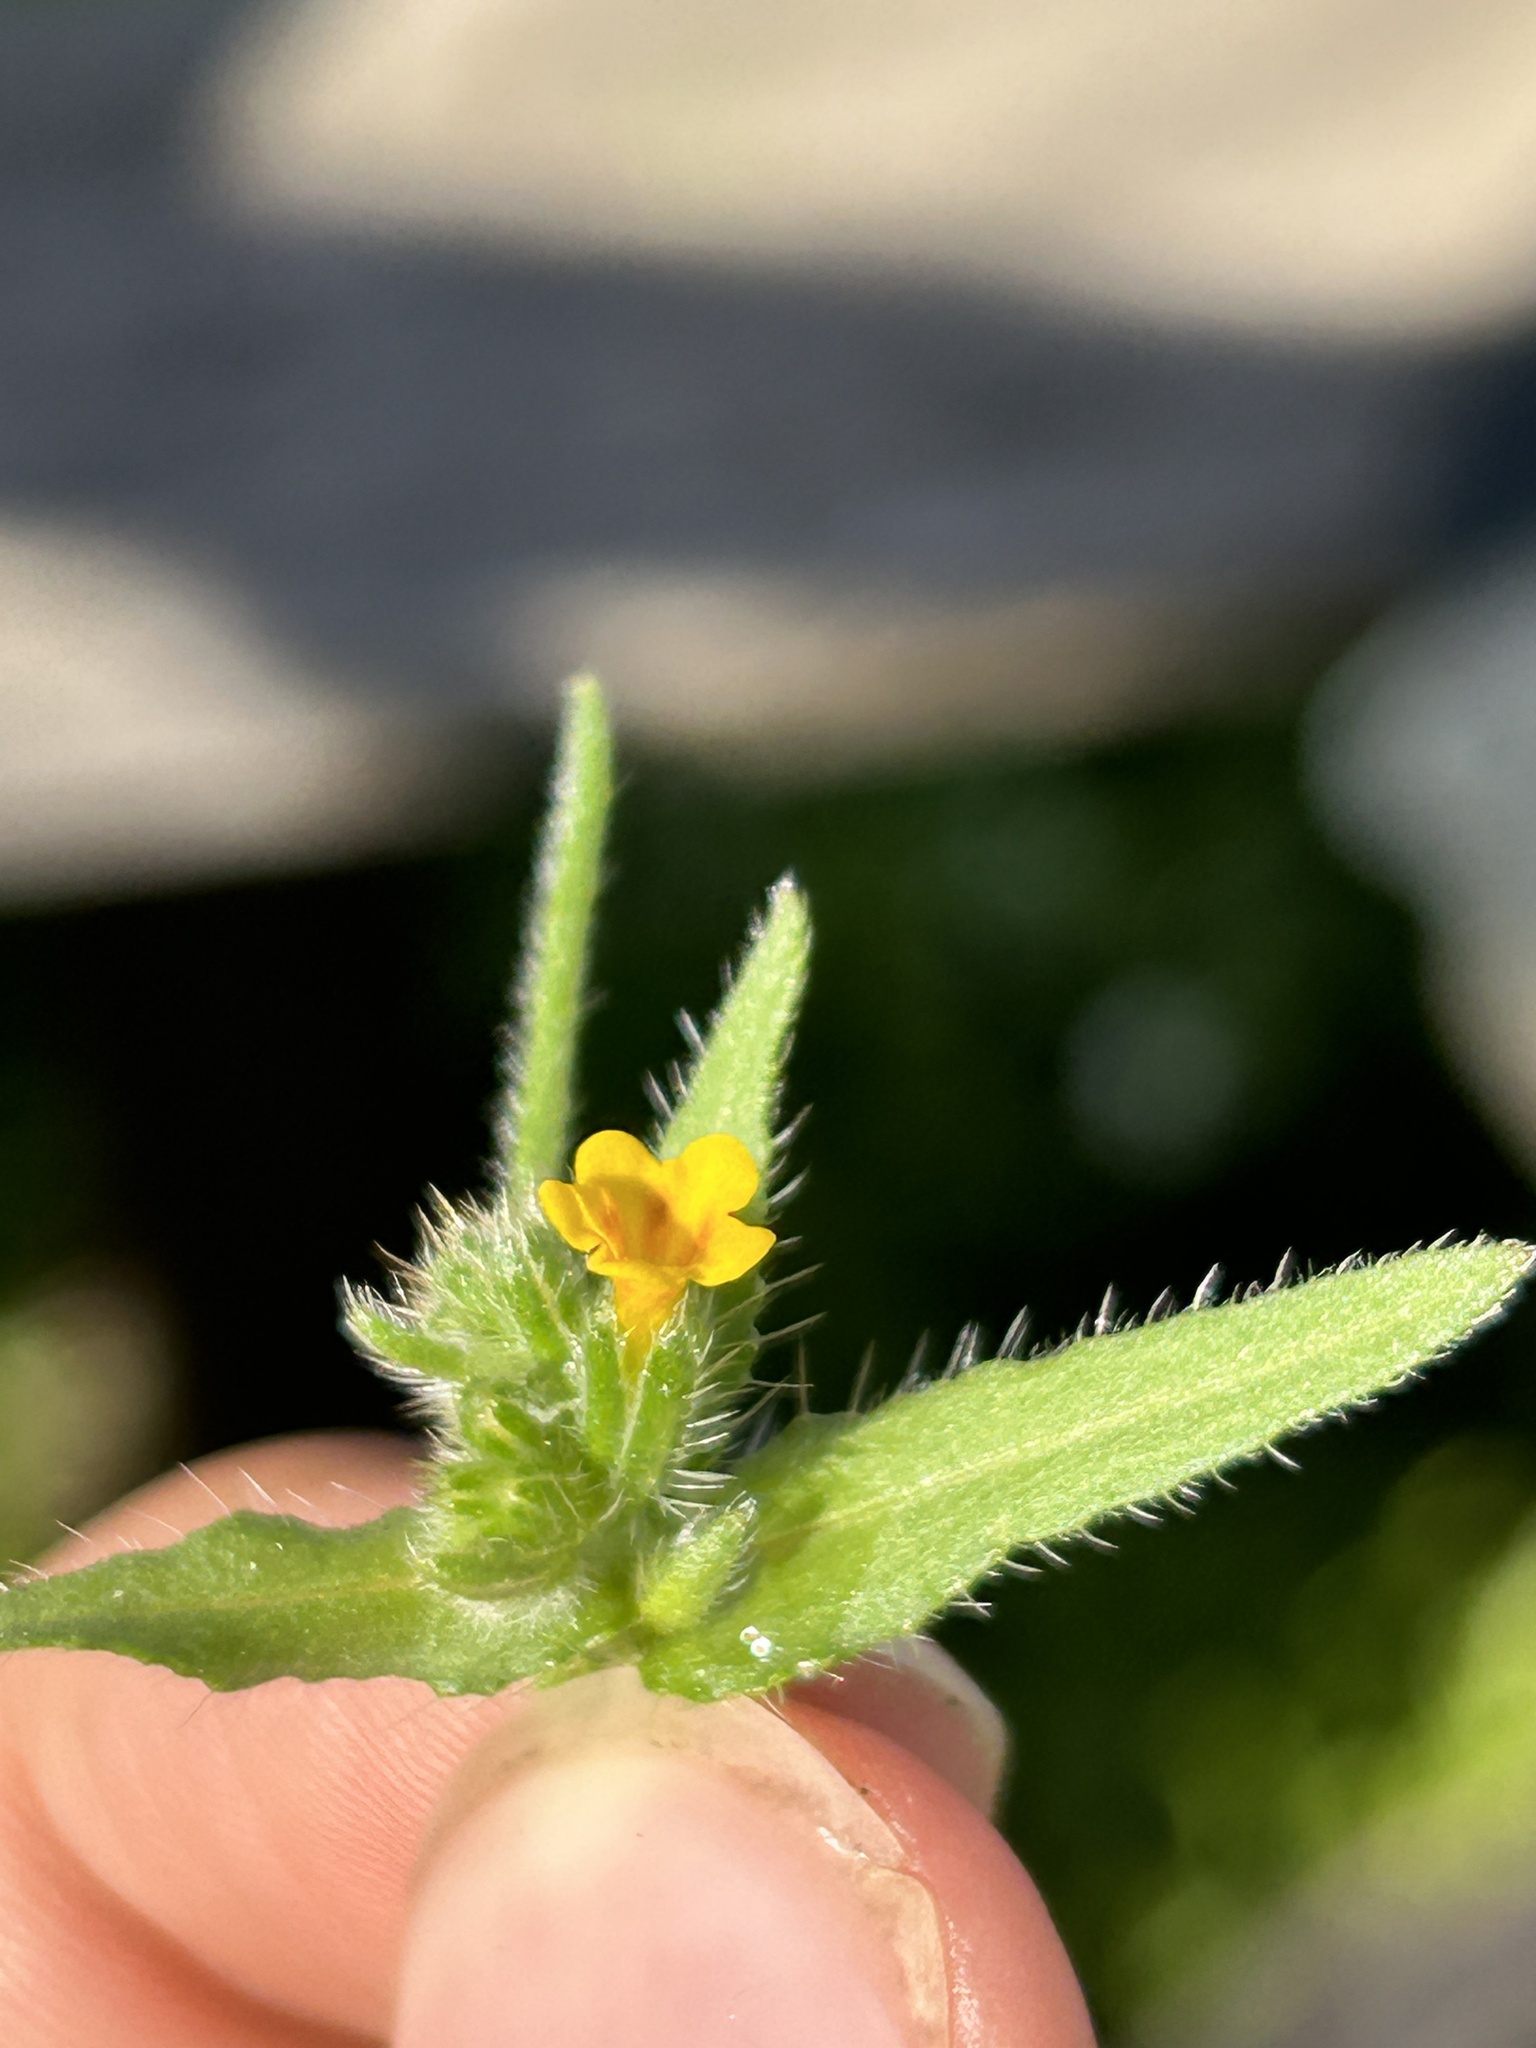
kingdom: Plantae
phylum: Tracheophyta
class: Magnoliopsida
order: Boraginales
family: Boraginaceae
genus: Amsinckia
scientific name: Amsinckia menziesii
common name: Menzies' fiddleneck
